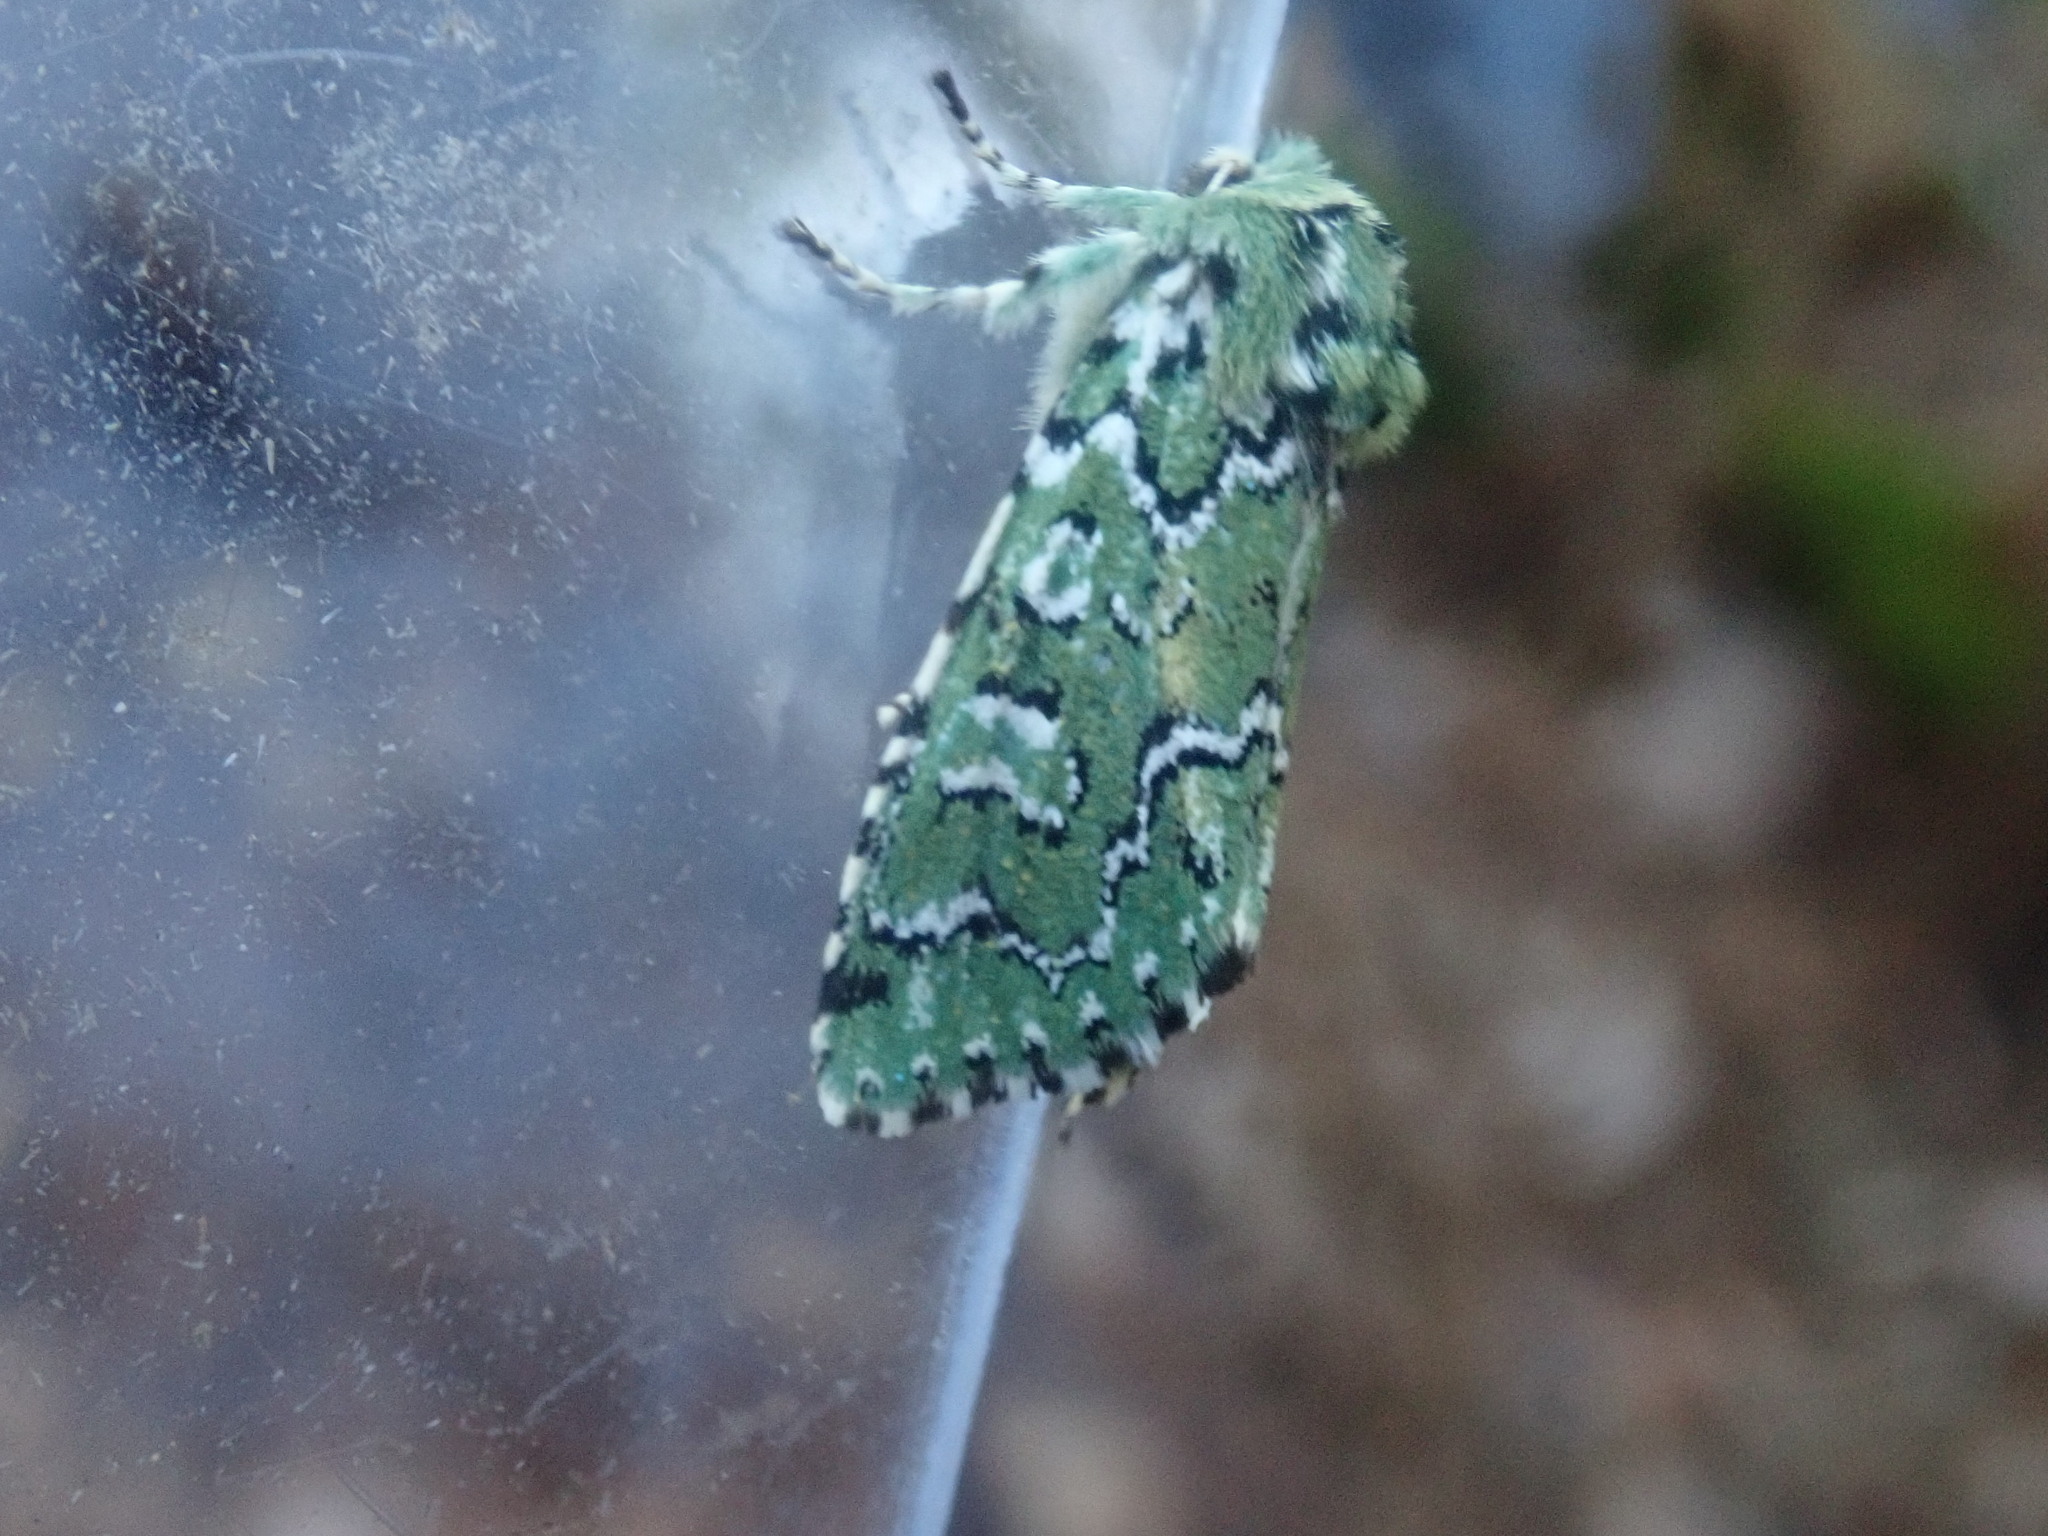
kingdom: Animalia
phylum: Arthropoda
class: Insecta
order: Lepidoptera
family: Noctuidae
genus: Feralia
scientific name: Feralia jocosa
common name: Joker
